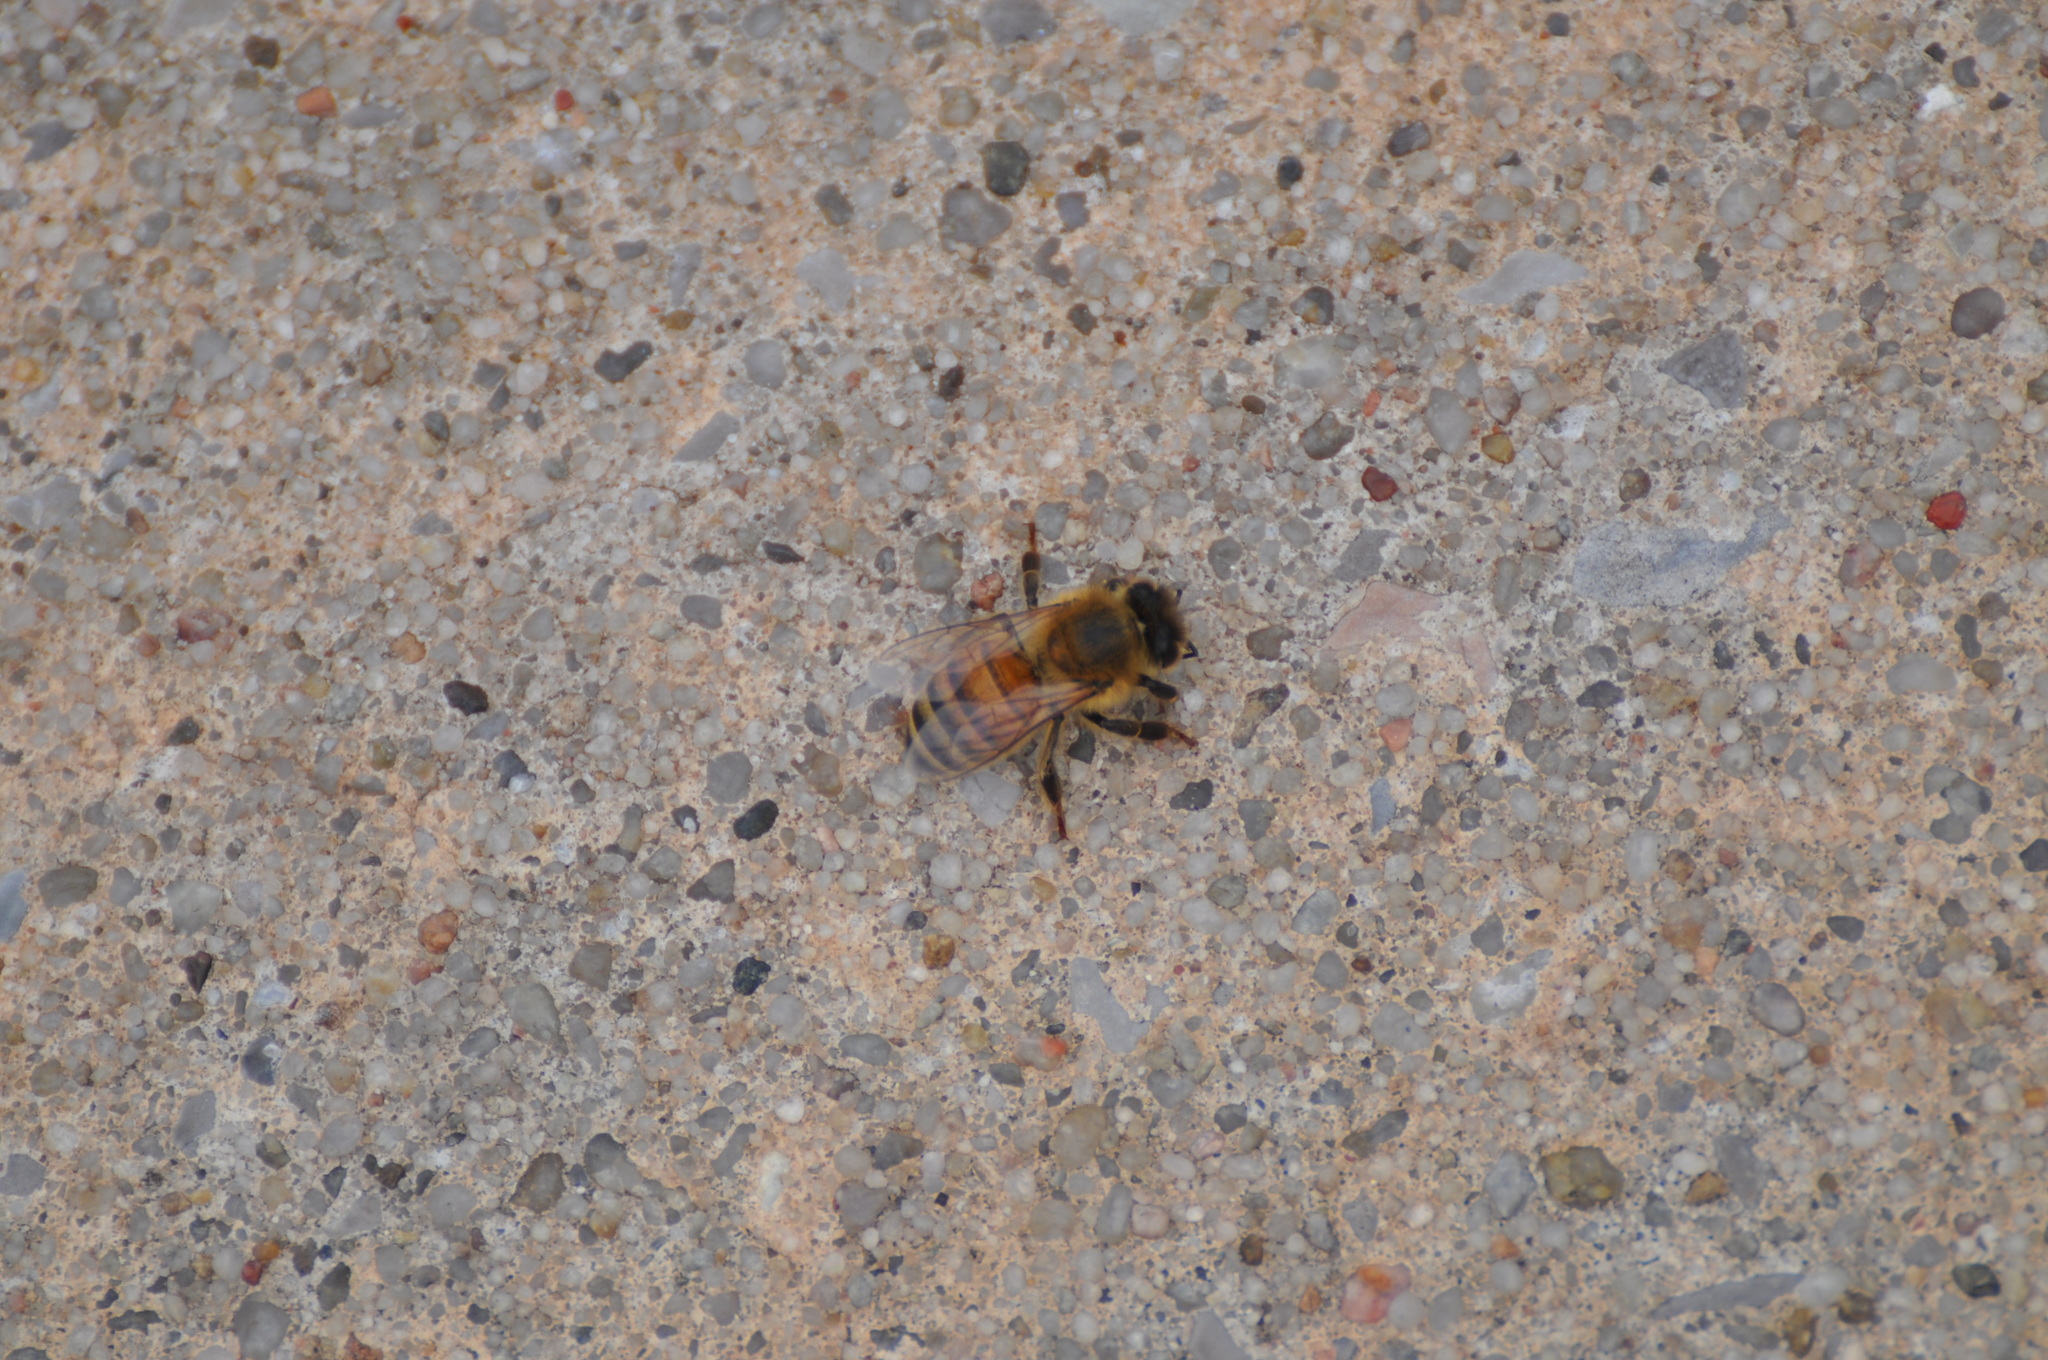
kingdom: Animalia
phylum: Arthropoda
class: Insecta
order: Hymenoptera
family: Apidae
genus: Apis
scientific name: Apis mellifera
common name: Honey bee
